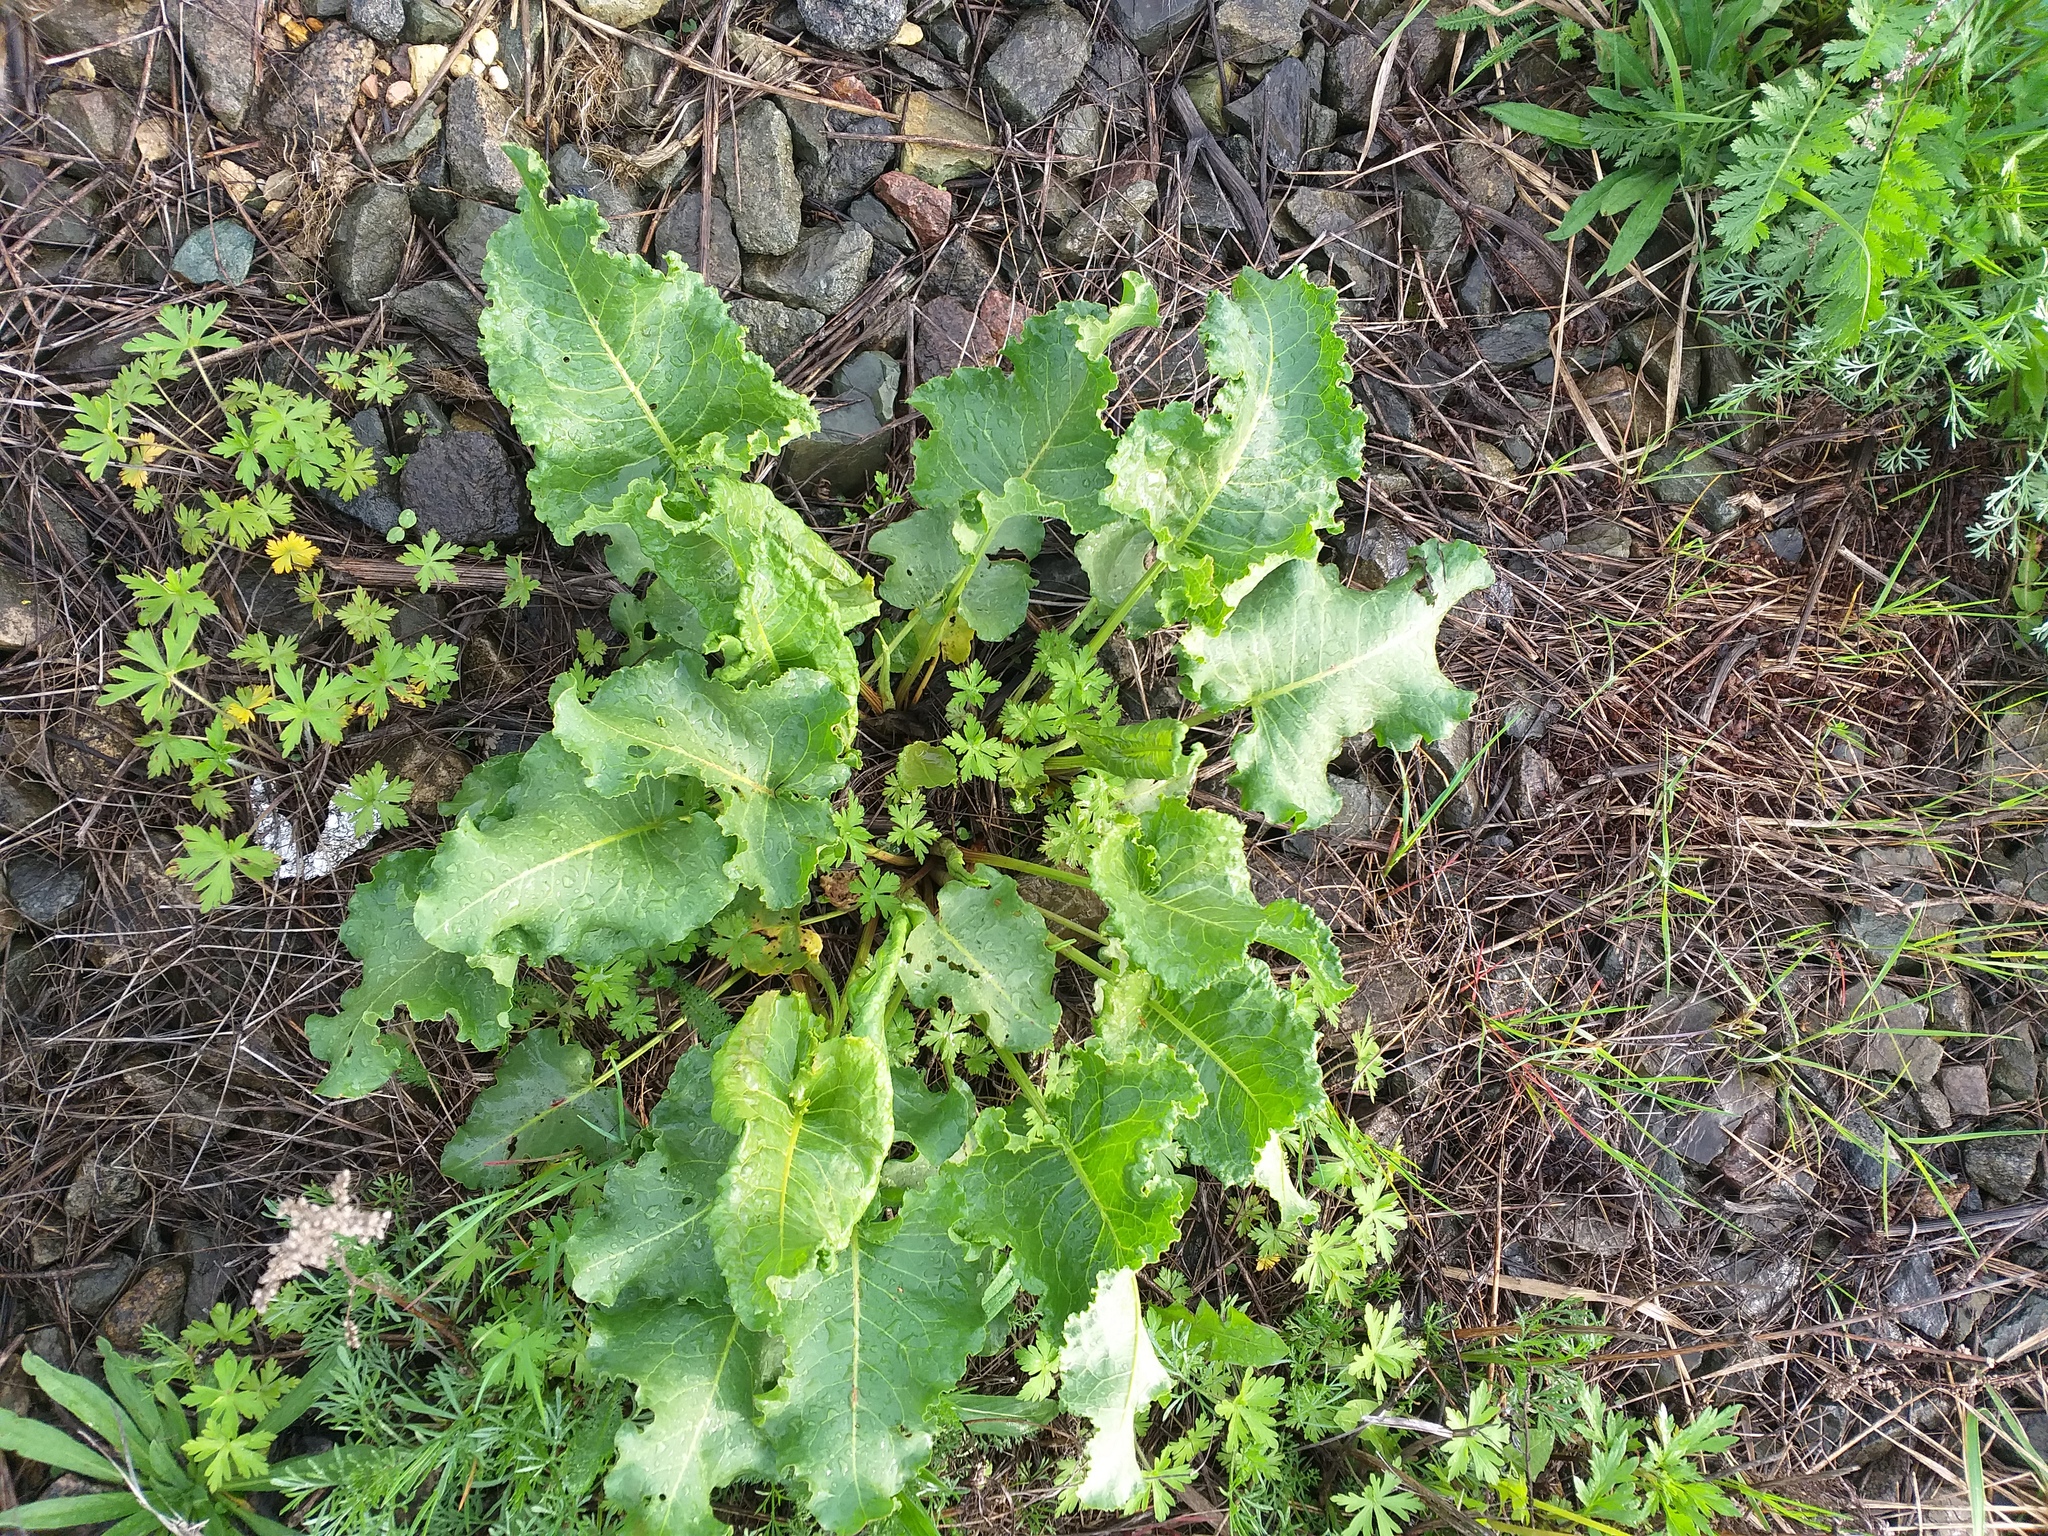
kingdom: Plantae
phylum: Tracheophyta
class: Magnoliopsida
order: Caryophyllales
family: Polygonaceae
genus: Rumex
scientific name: Rumex confertus
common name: Russian dock
